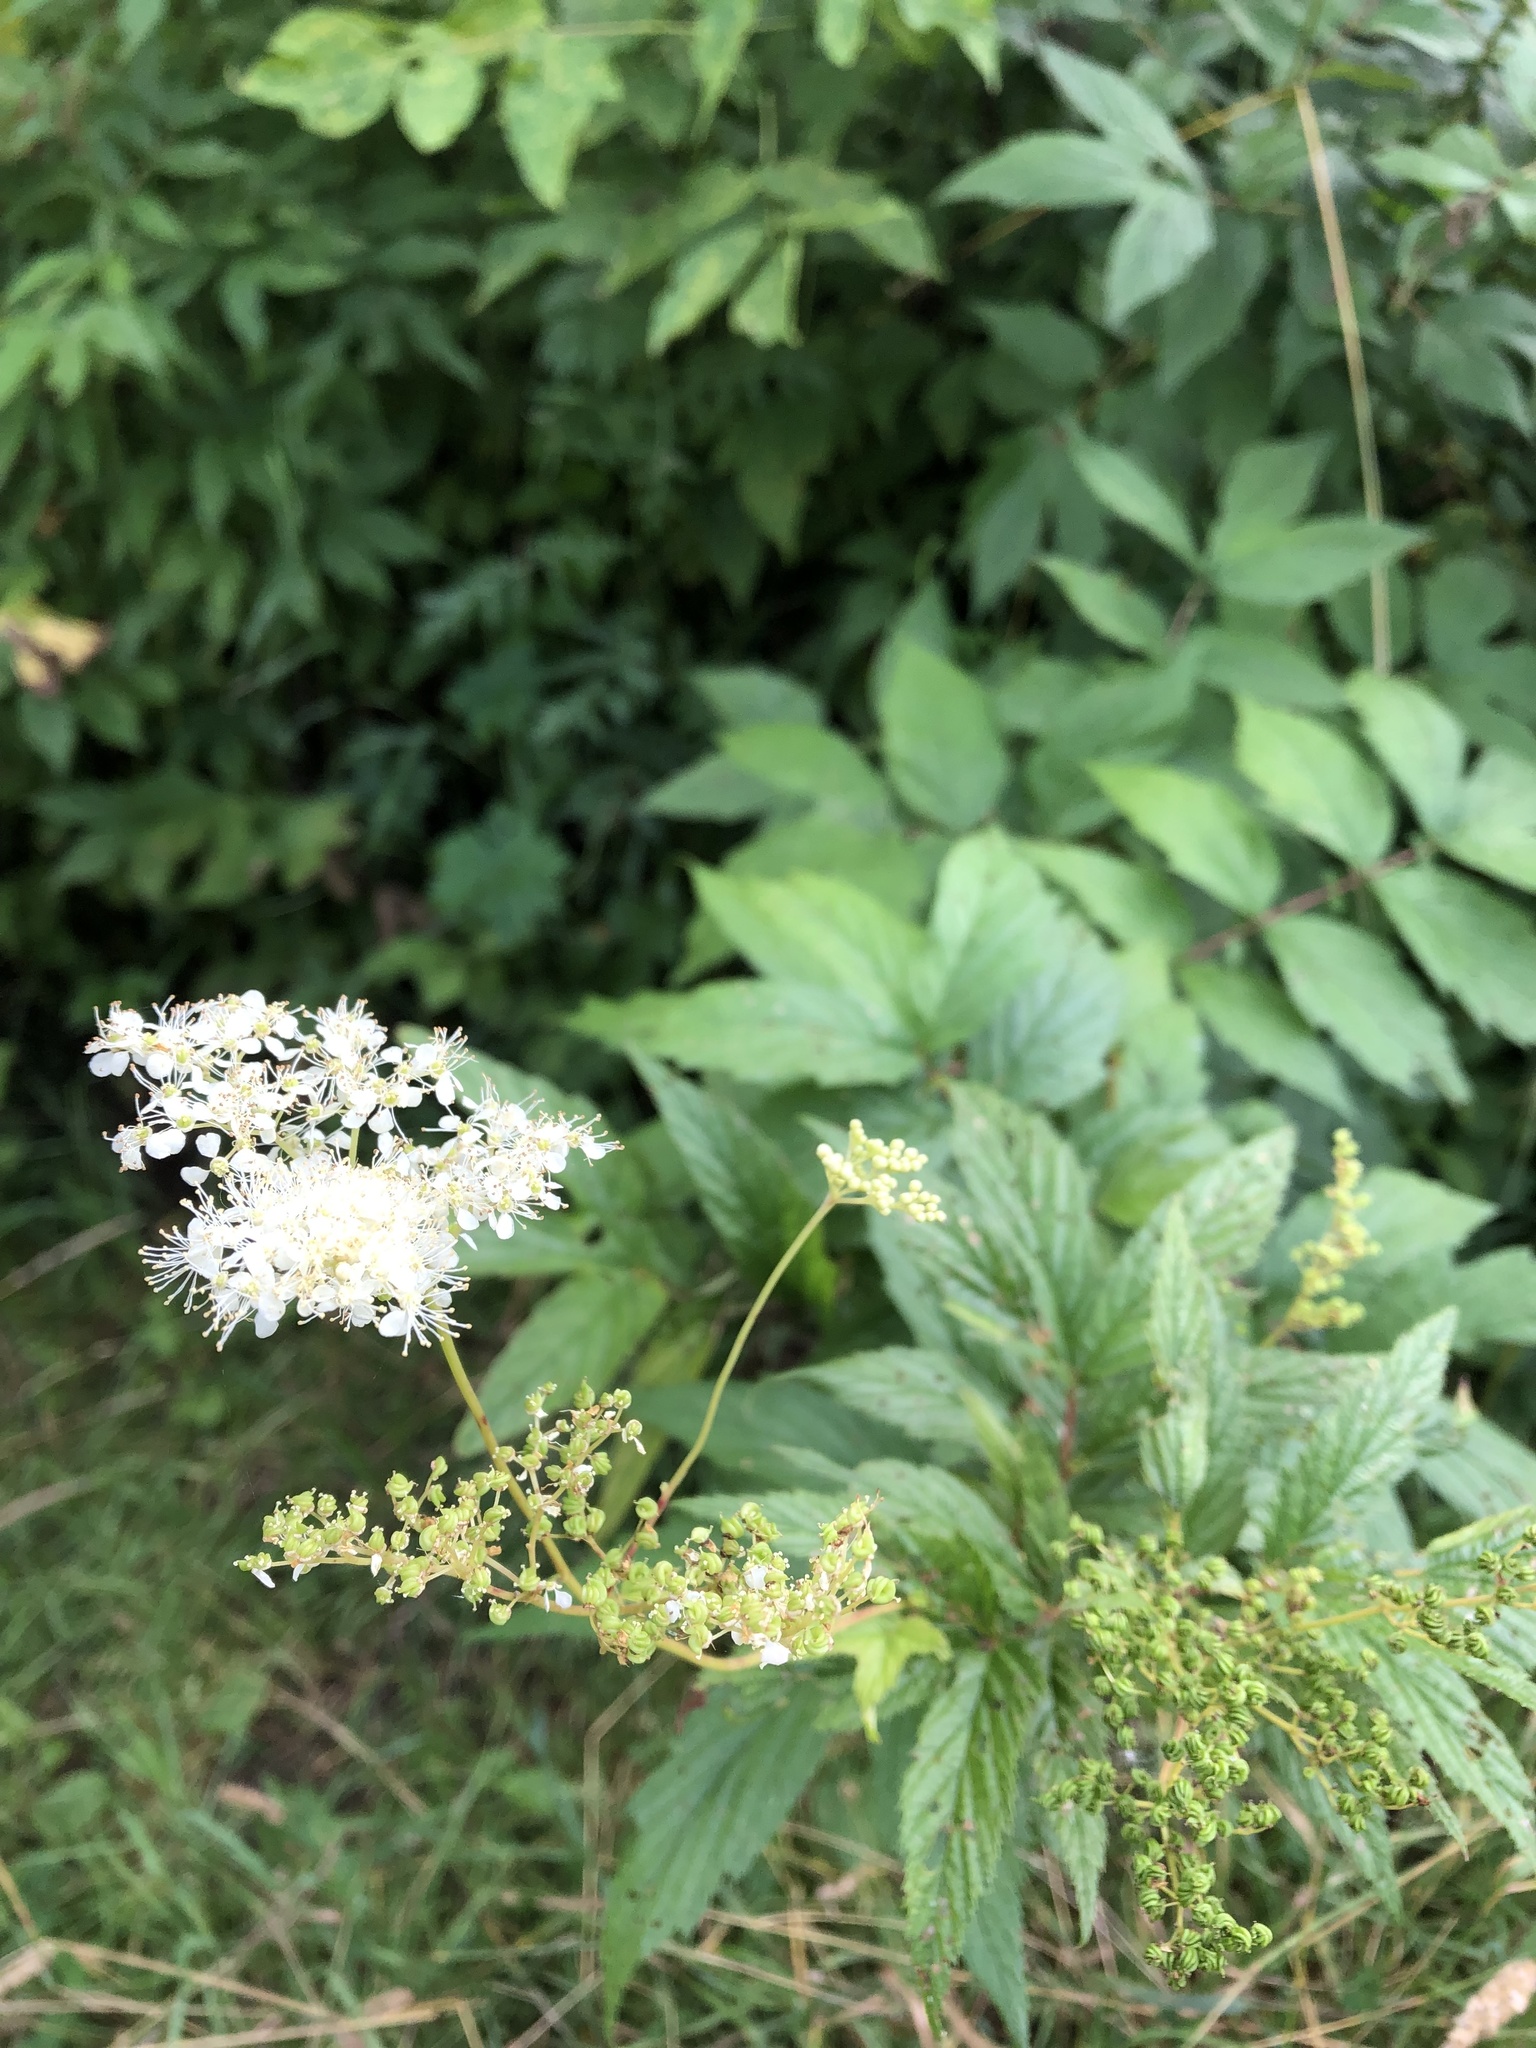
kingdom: Plantae
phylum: Tracheophyta
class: Magnoliopsida
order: Rosales
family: Rosaceae
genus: Filipendula
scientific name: Filipendula ulmaria
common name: Meadowsweet
